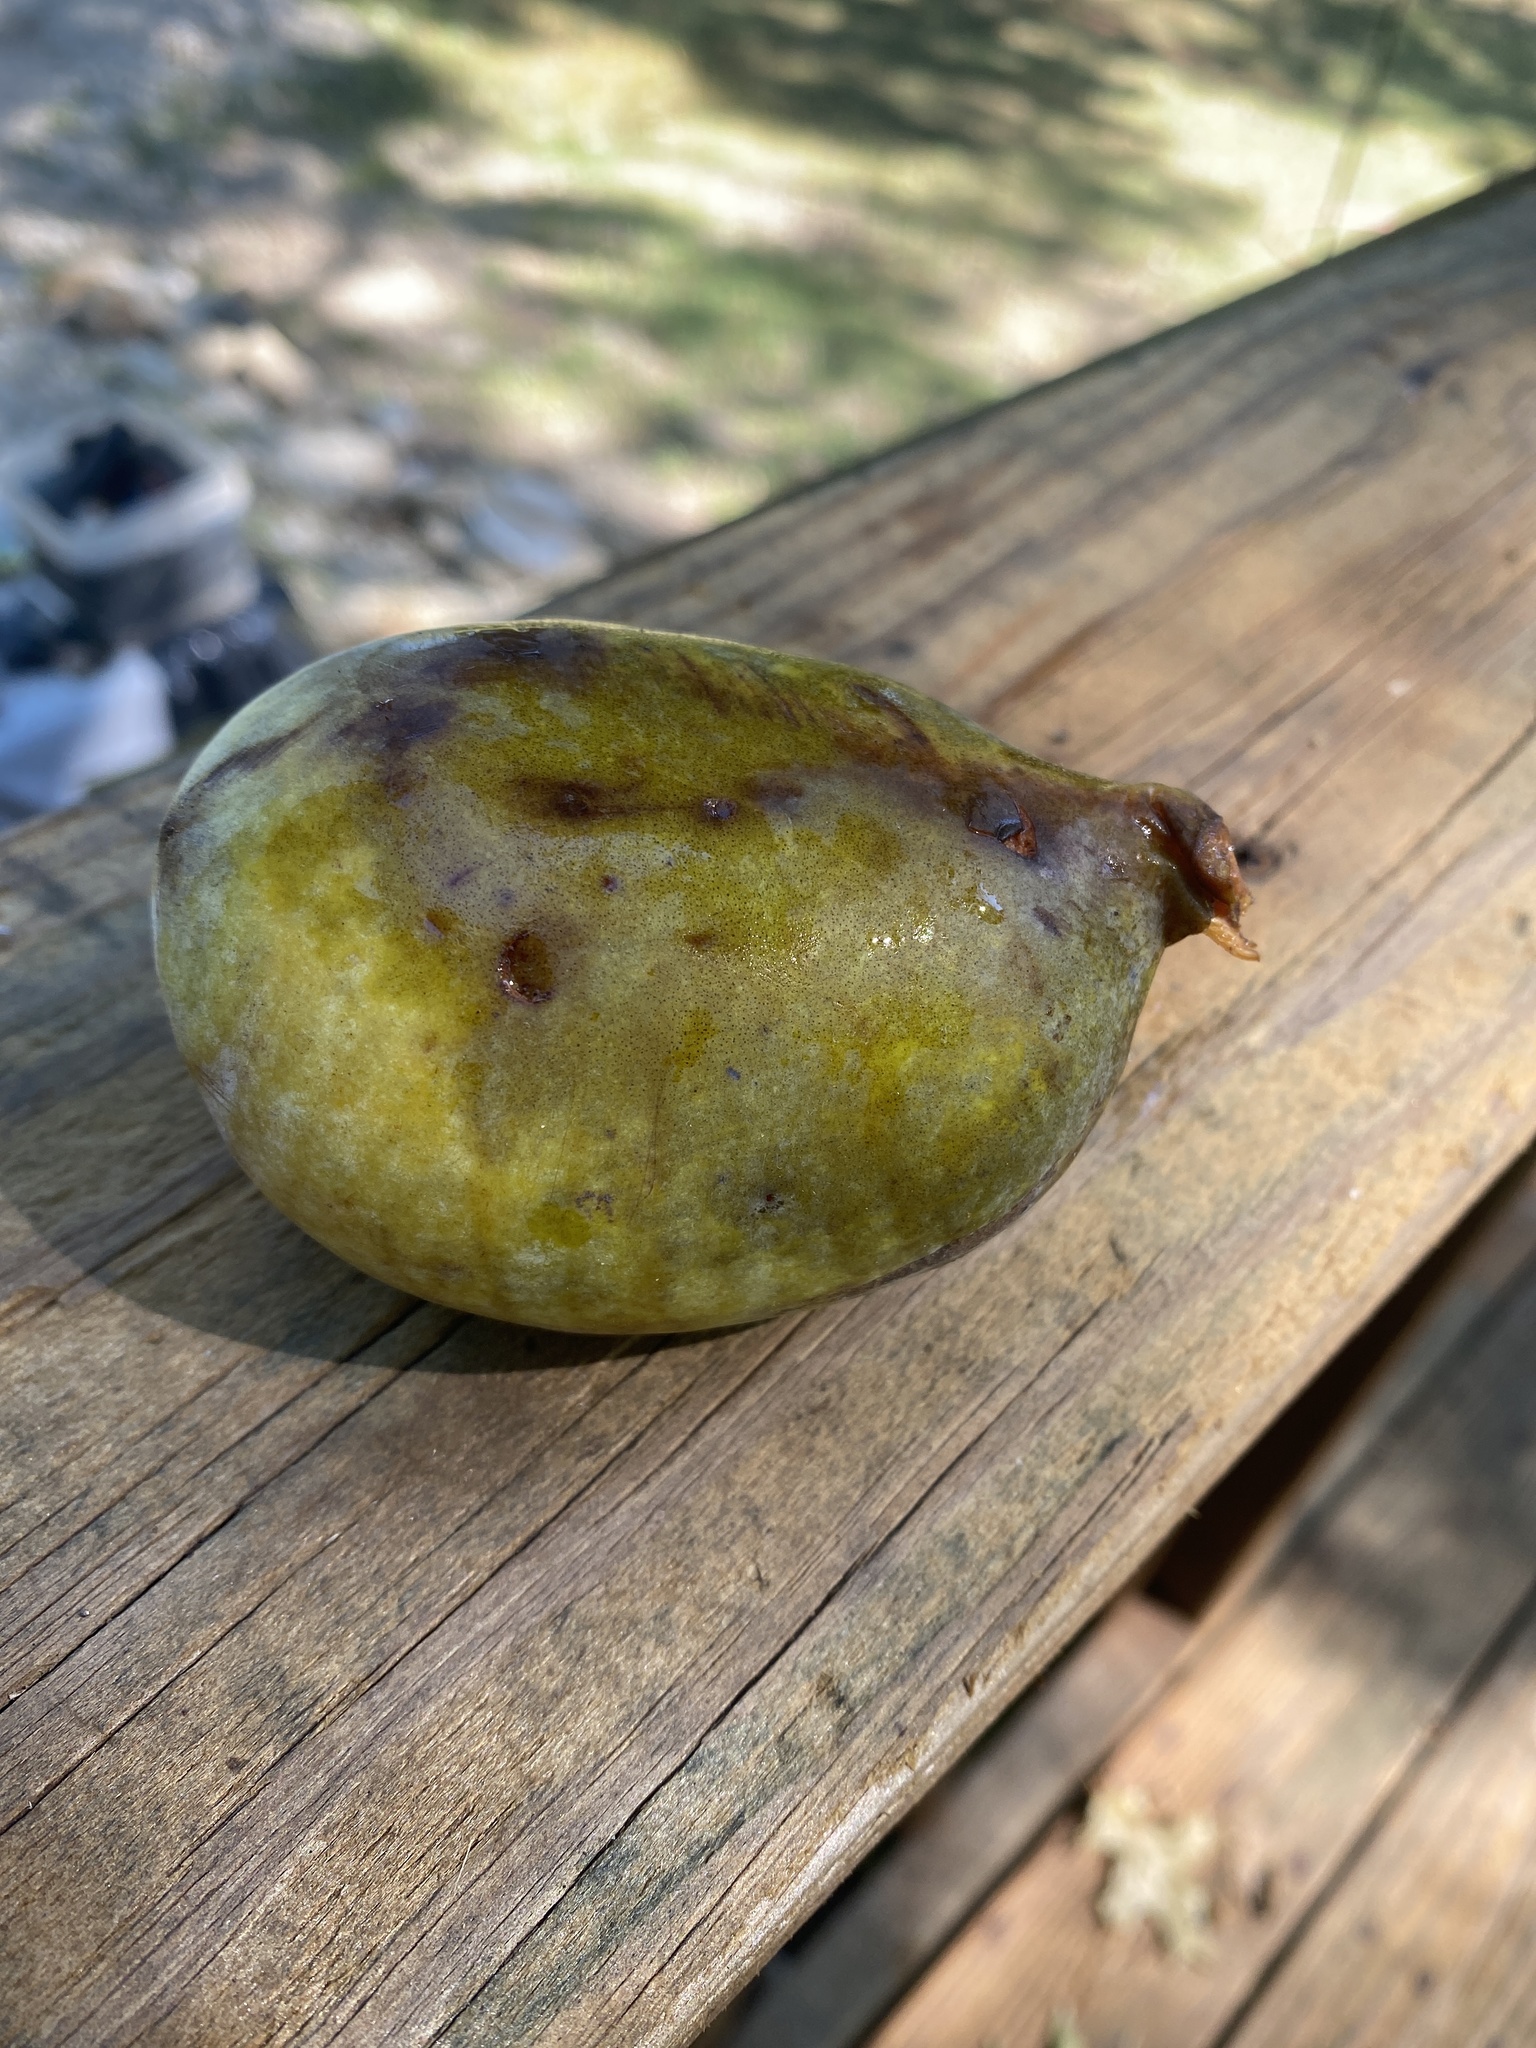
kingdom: Plantae
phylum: Tracheophyta
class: Magnoliopsida
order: Magnoliales
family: Annonaceae
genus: Asimina
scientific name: Asimina triloba
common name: Dog-banana
